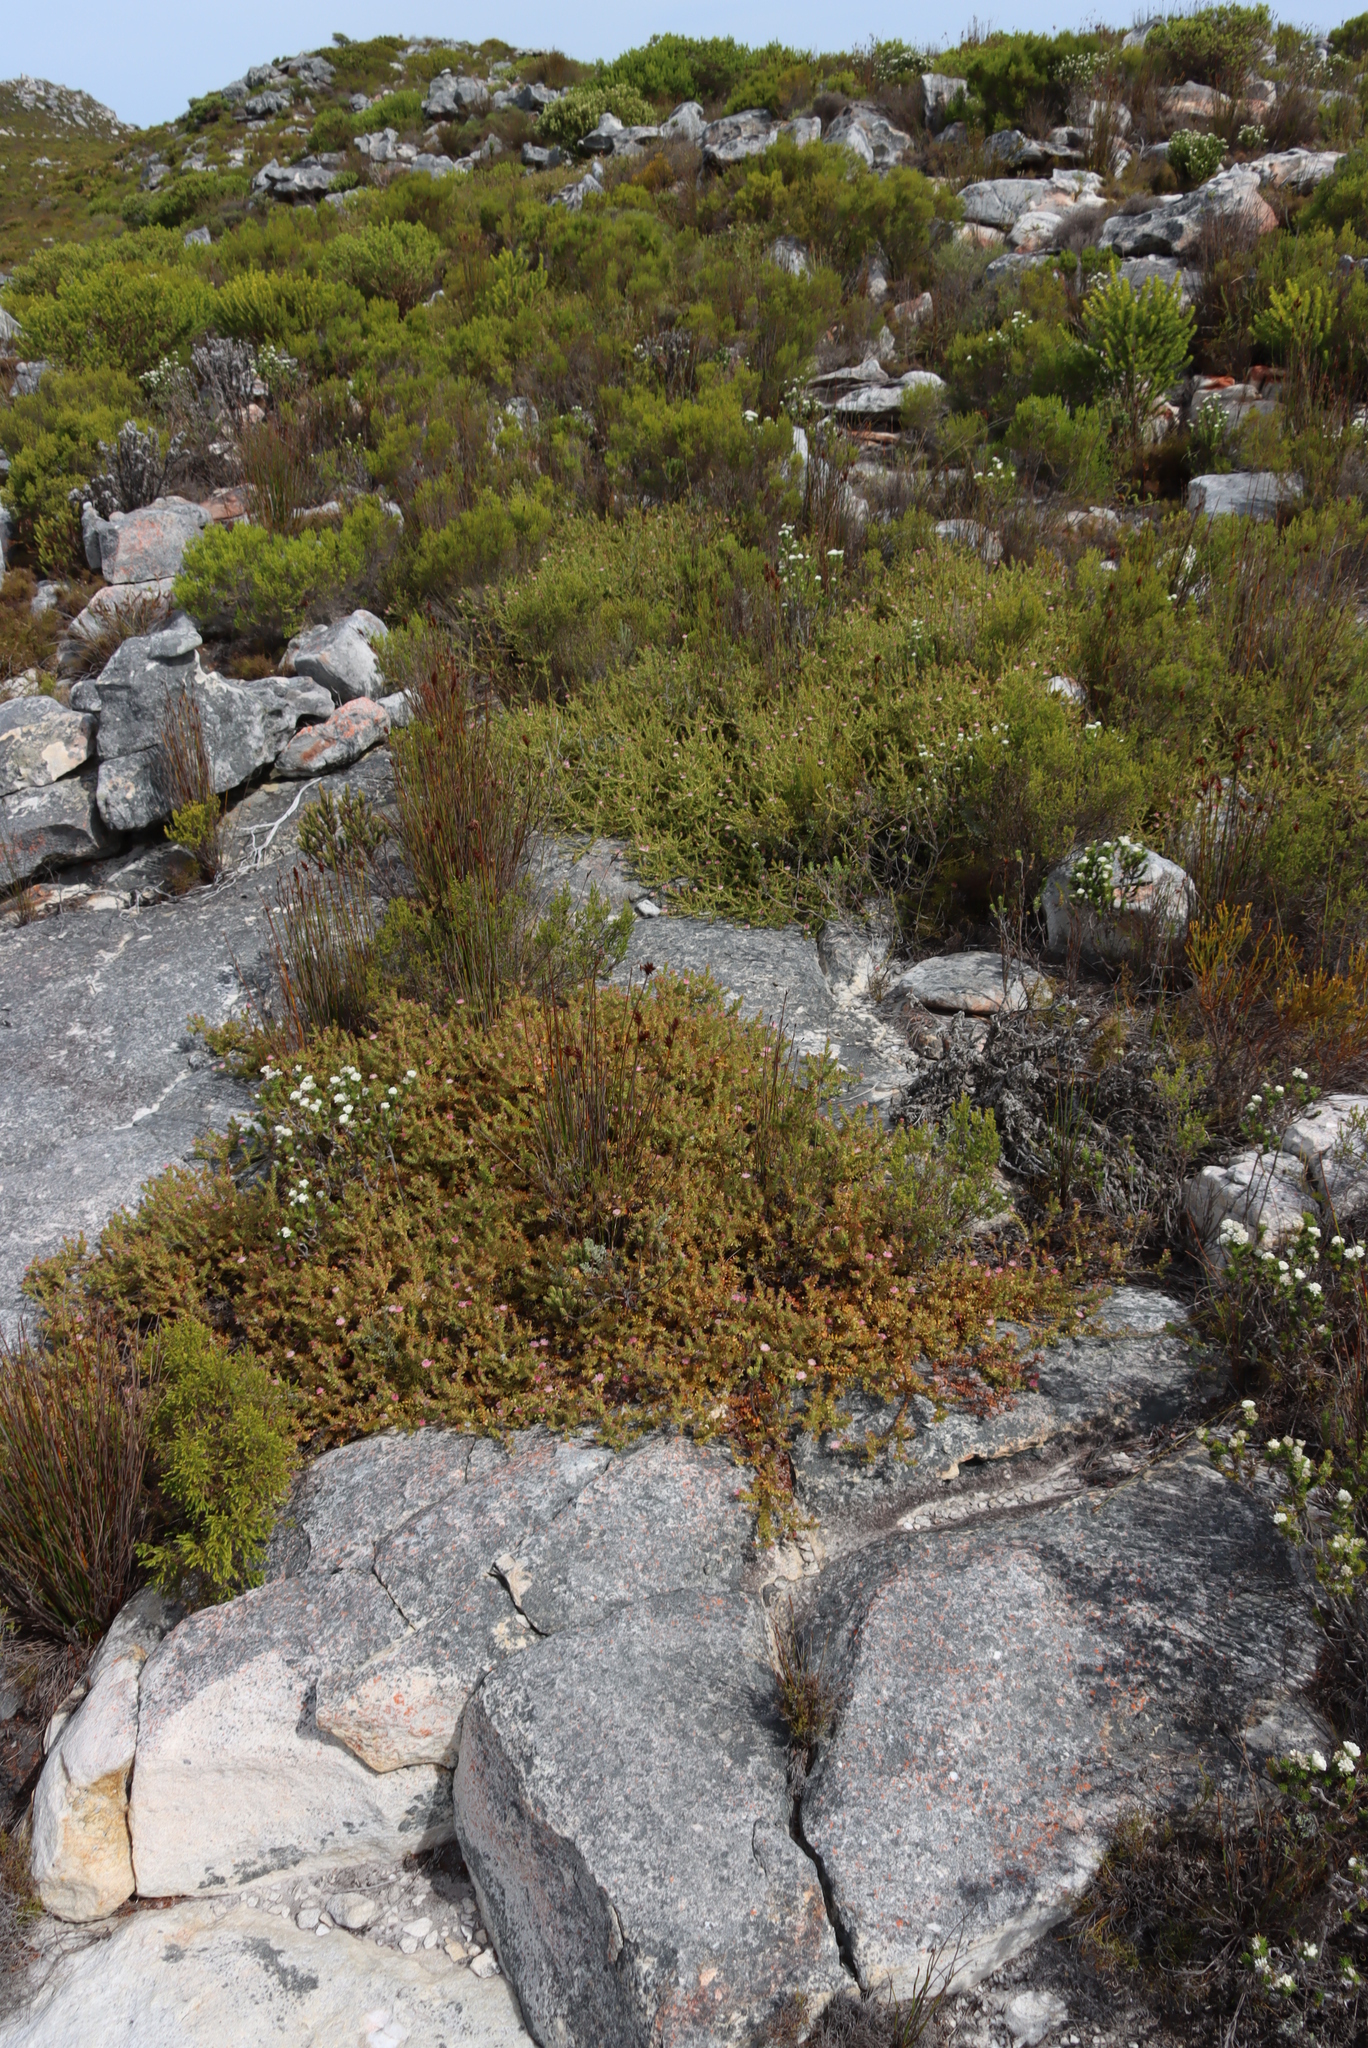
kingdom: Plantae
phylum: Tracheophyta
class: Magnoliopsida
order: Proteales
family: Proteaceae
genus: Diastella
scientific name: Diastella divaricata
